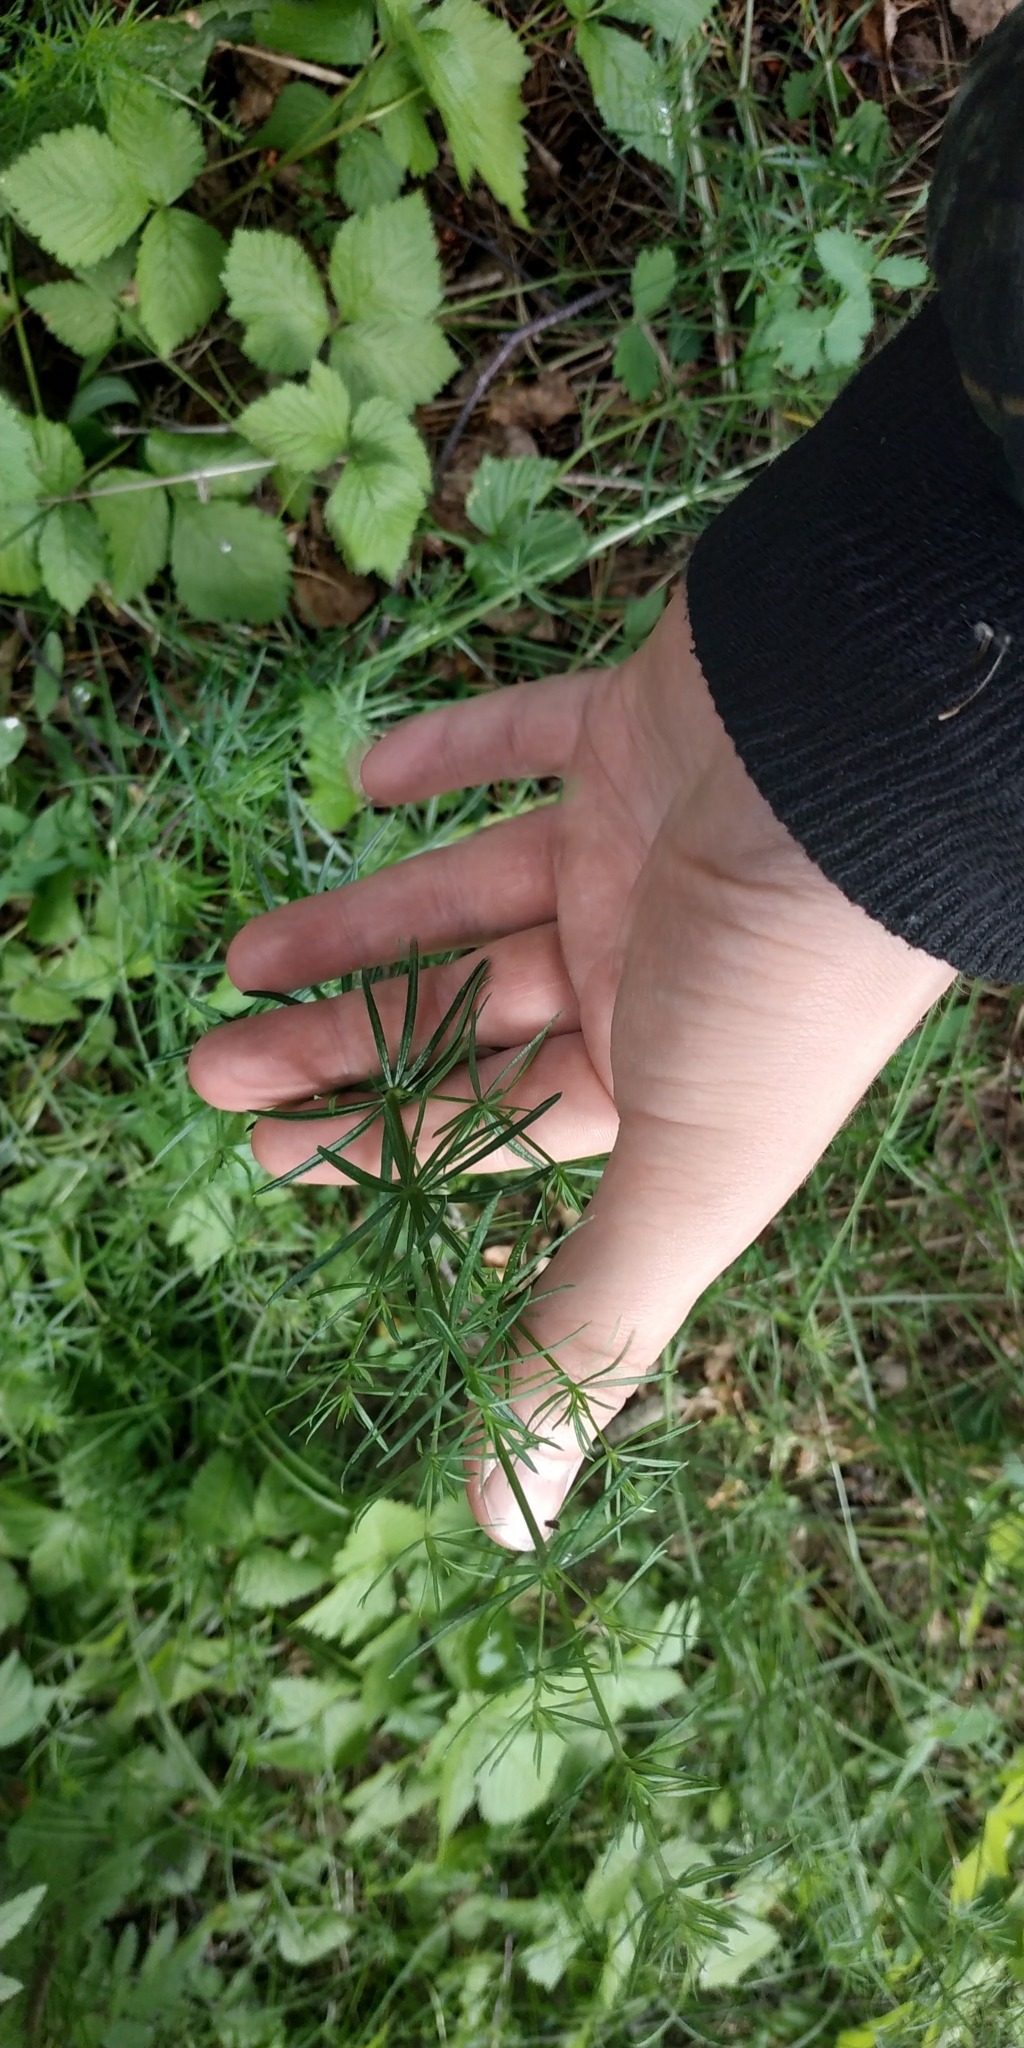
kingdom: Plantae
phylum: Tracheophyta
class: Magnoliopsida
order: Gentianales
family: Rubiaceae
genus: Galium
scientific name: Galium verum
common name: Lady's bedstraw
